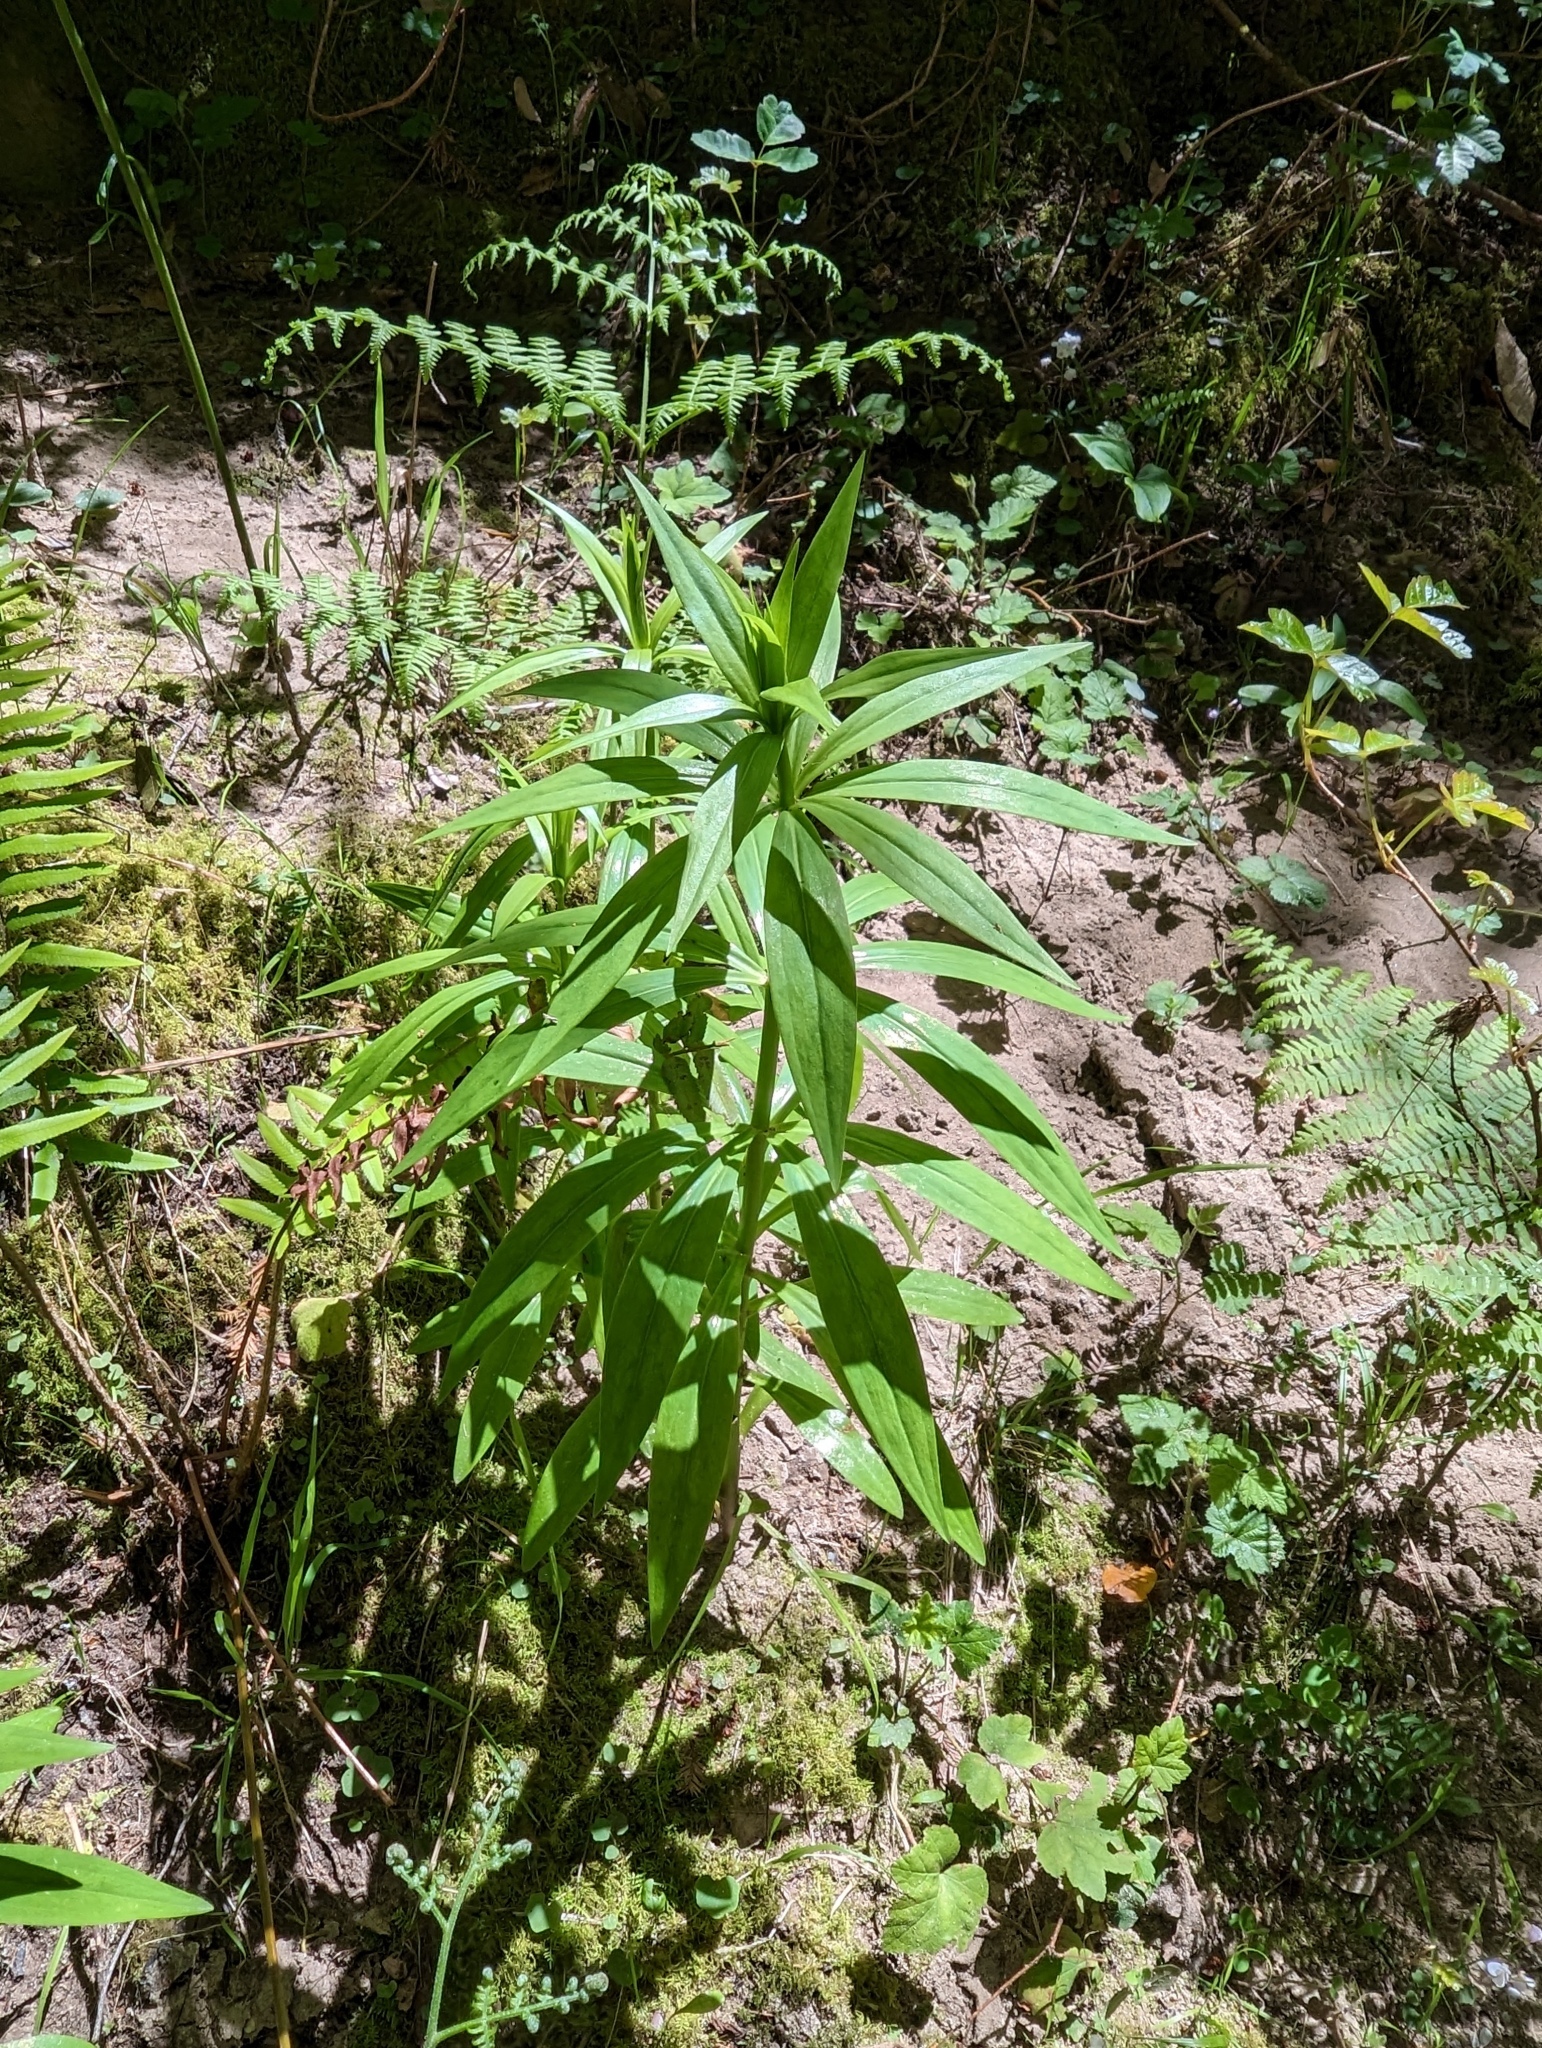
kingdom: Plantae
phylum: Tracheophyta
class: Liliopsida
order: Liliales
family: Liliaceae
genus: Lilium
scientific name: Lilium pardalinum
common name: Panther lily
